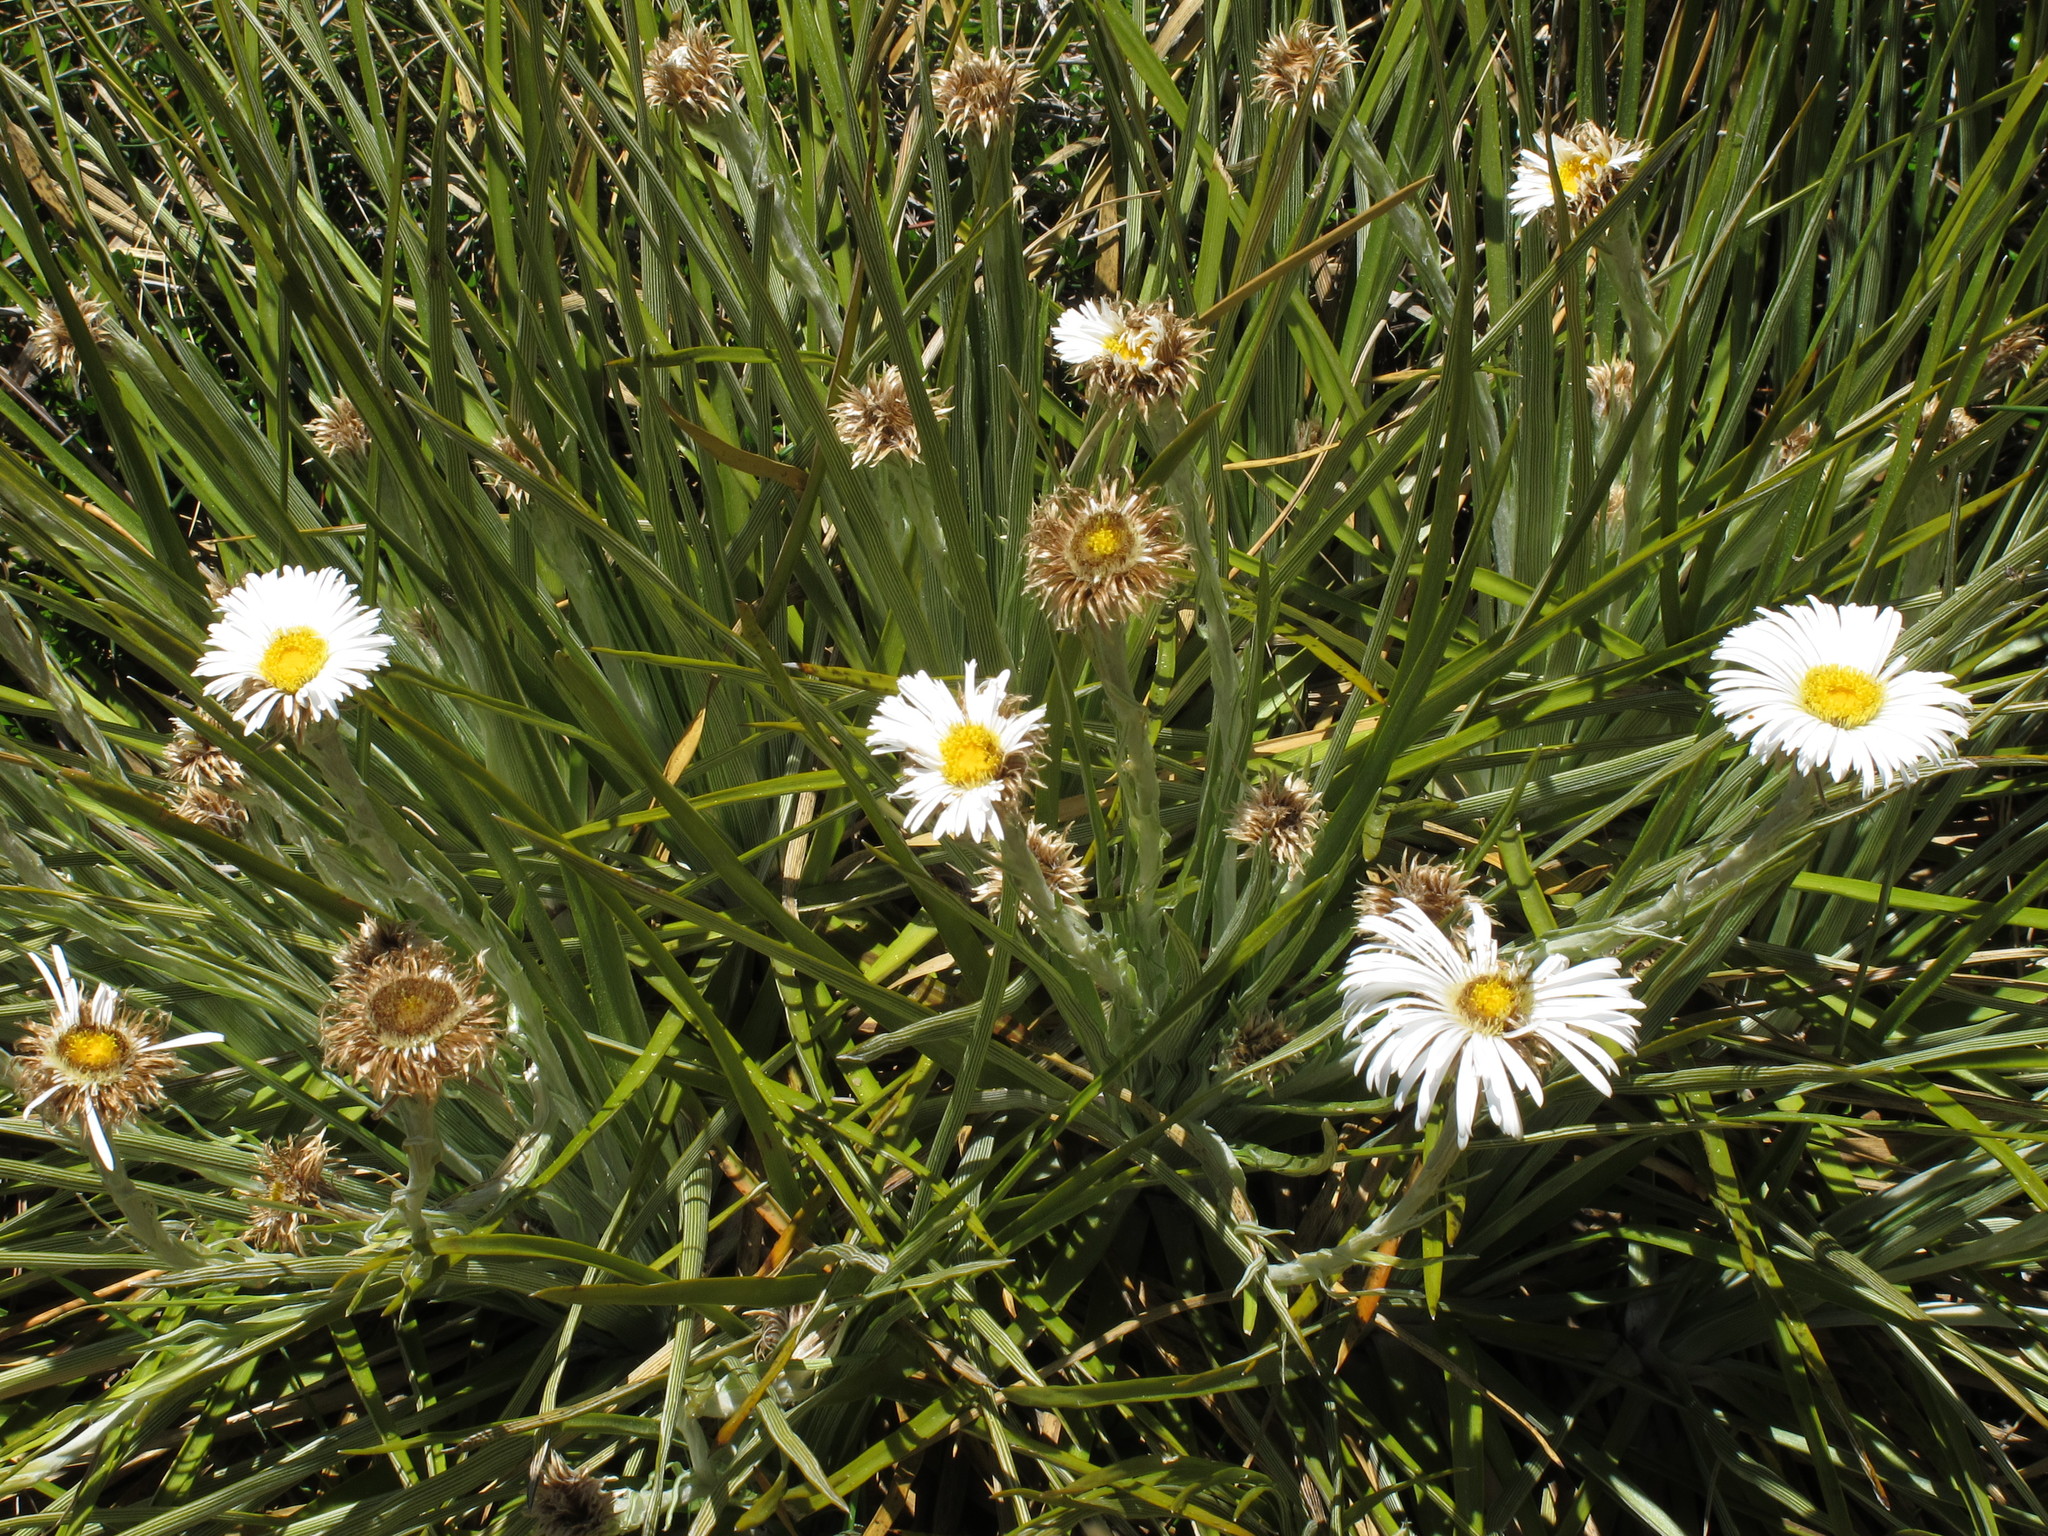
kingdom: Plantae
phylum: Tracheophyta
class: Magnoliopsida
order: Asterales
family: Asteraceae
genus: Celmisia
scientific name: Celmisia lyallii
